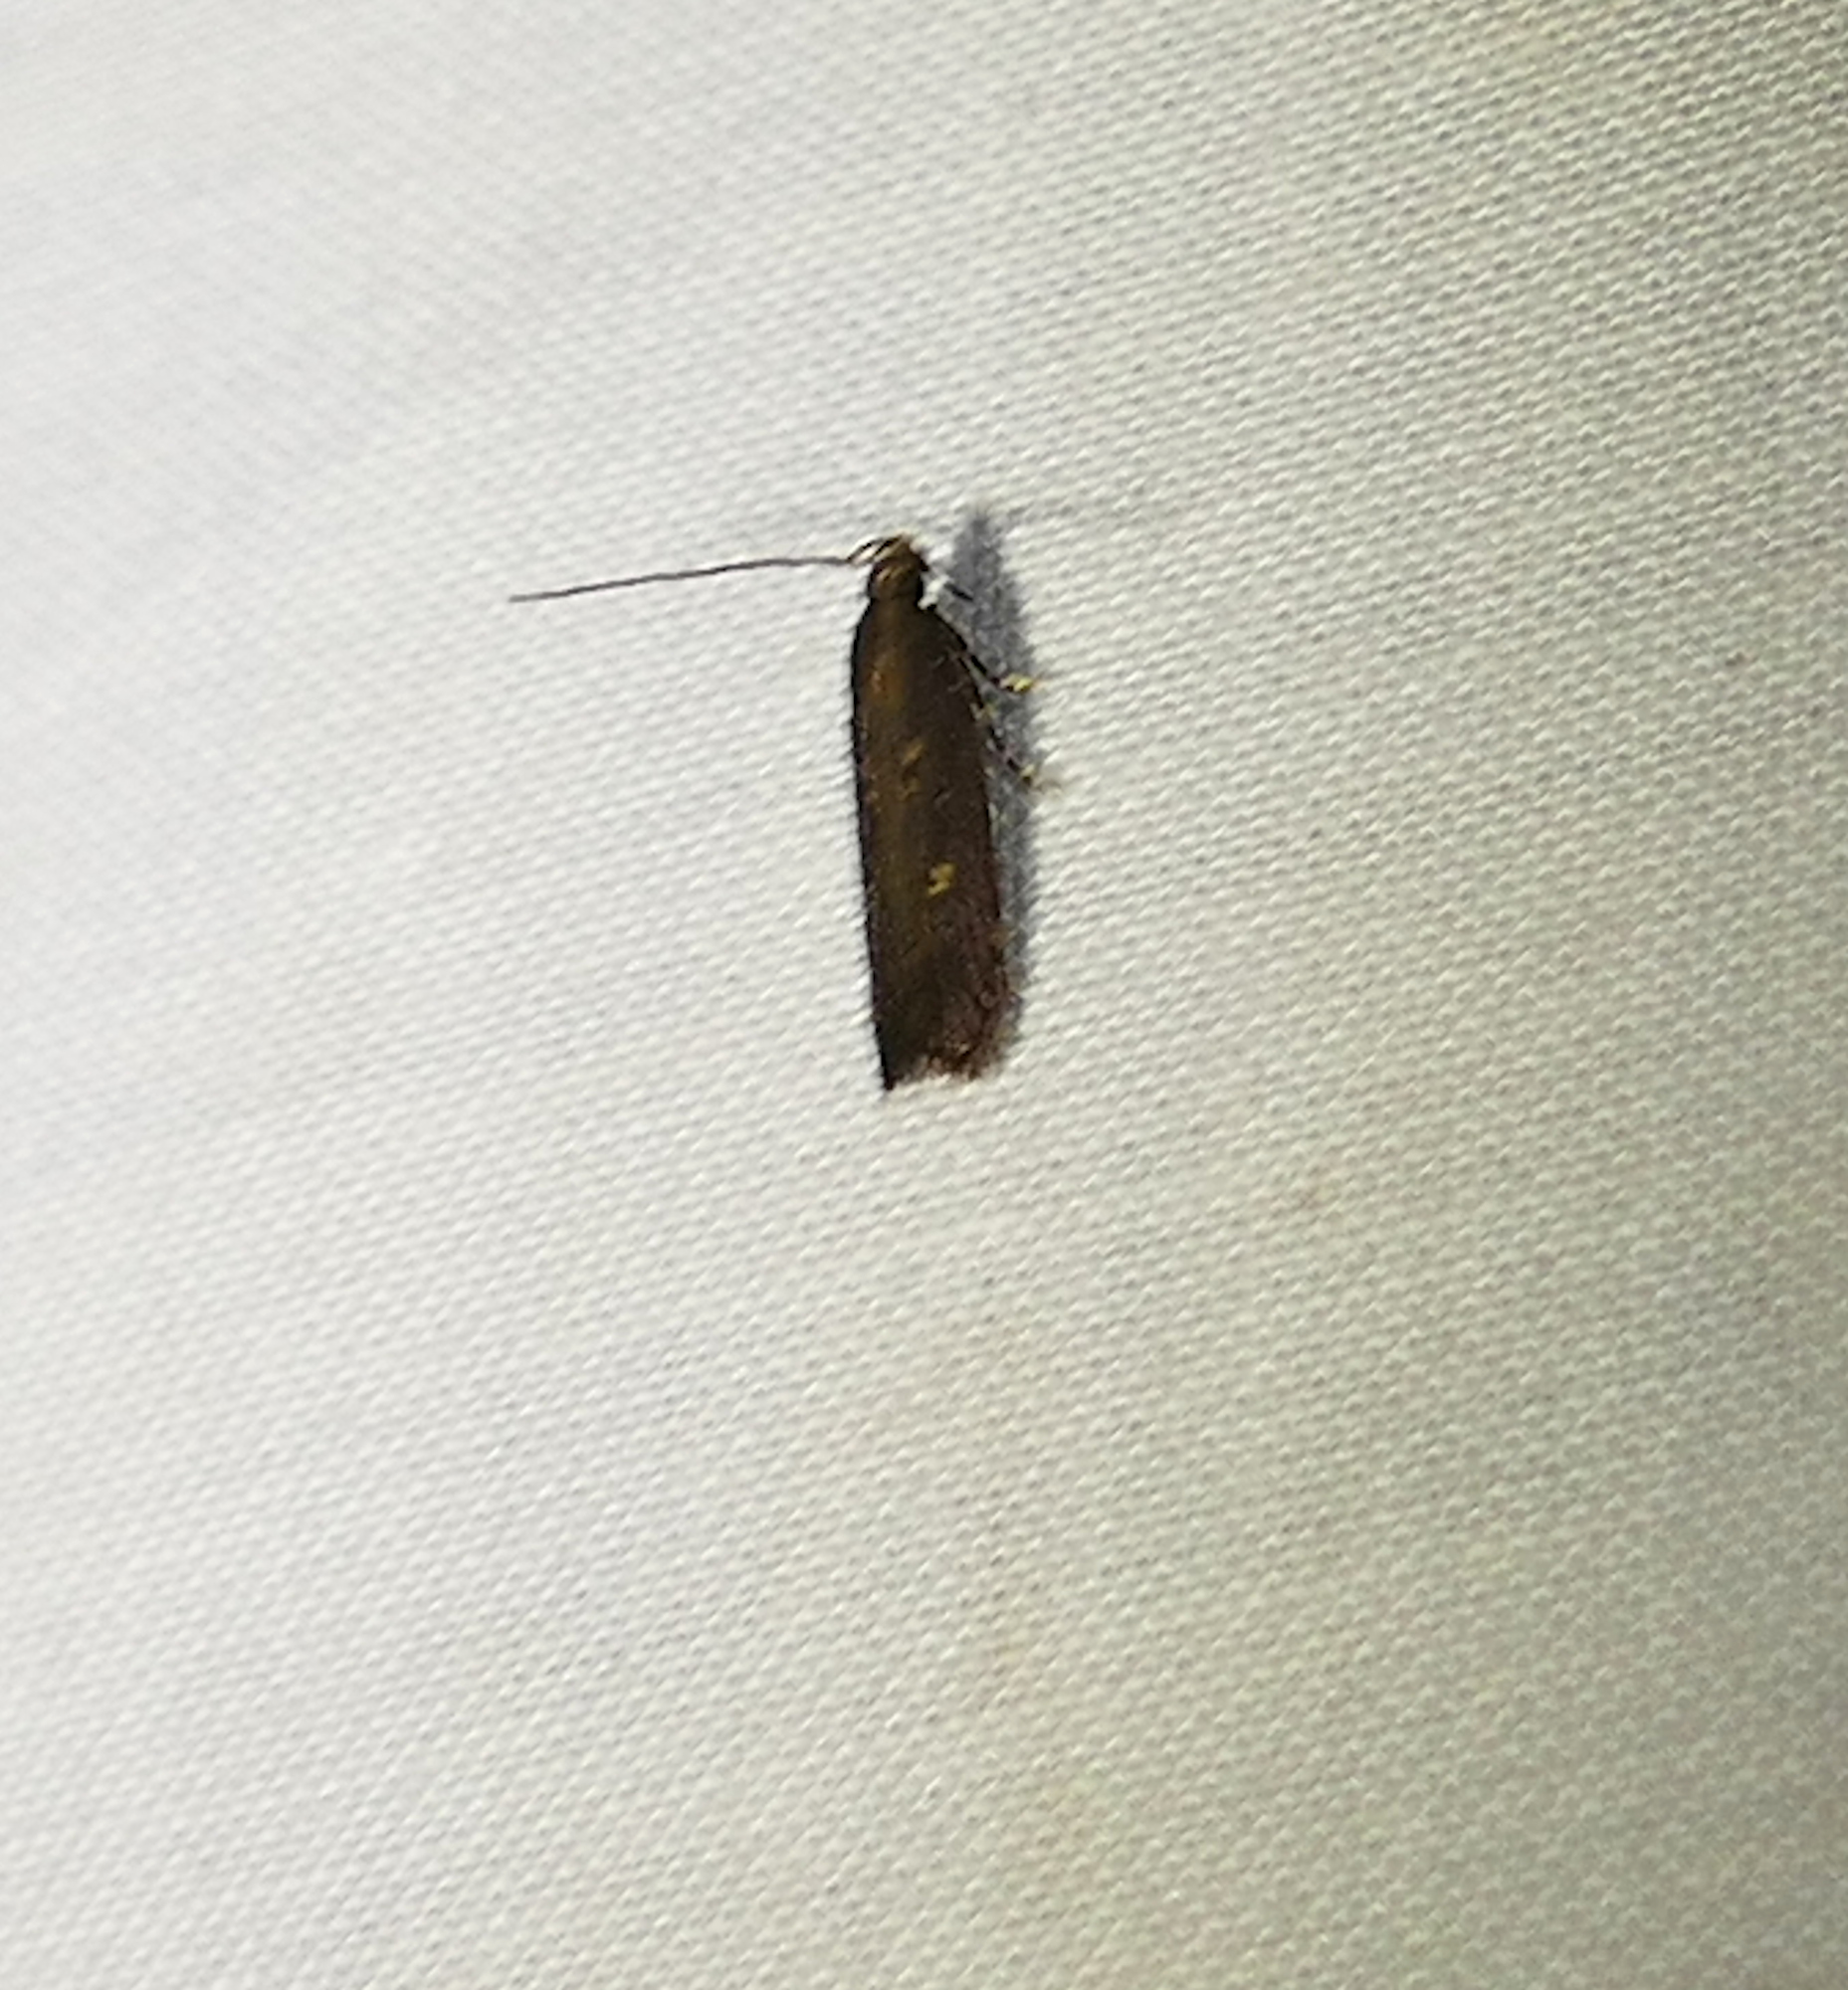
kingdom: Animalia
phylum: Arthropoda
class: Insecta
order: Lepidoptera
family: Gelechiidae
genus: Chionodes
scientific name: Chionodes discoocellella
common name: Eye-ringed chionodes moth
